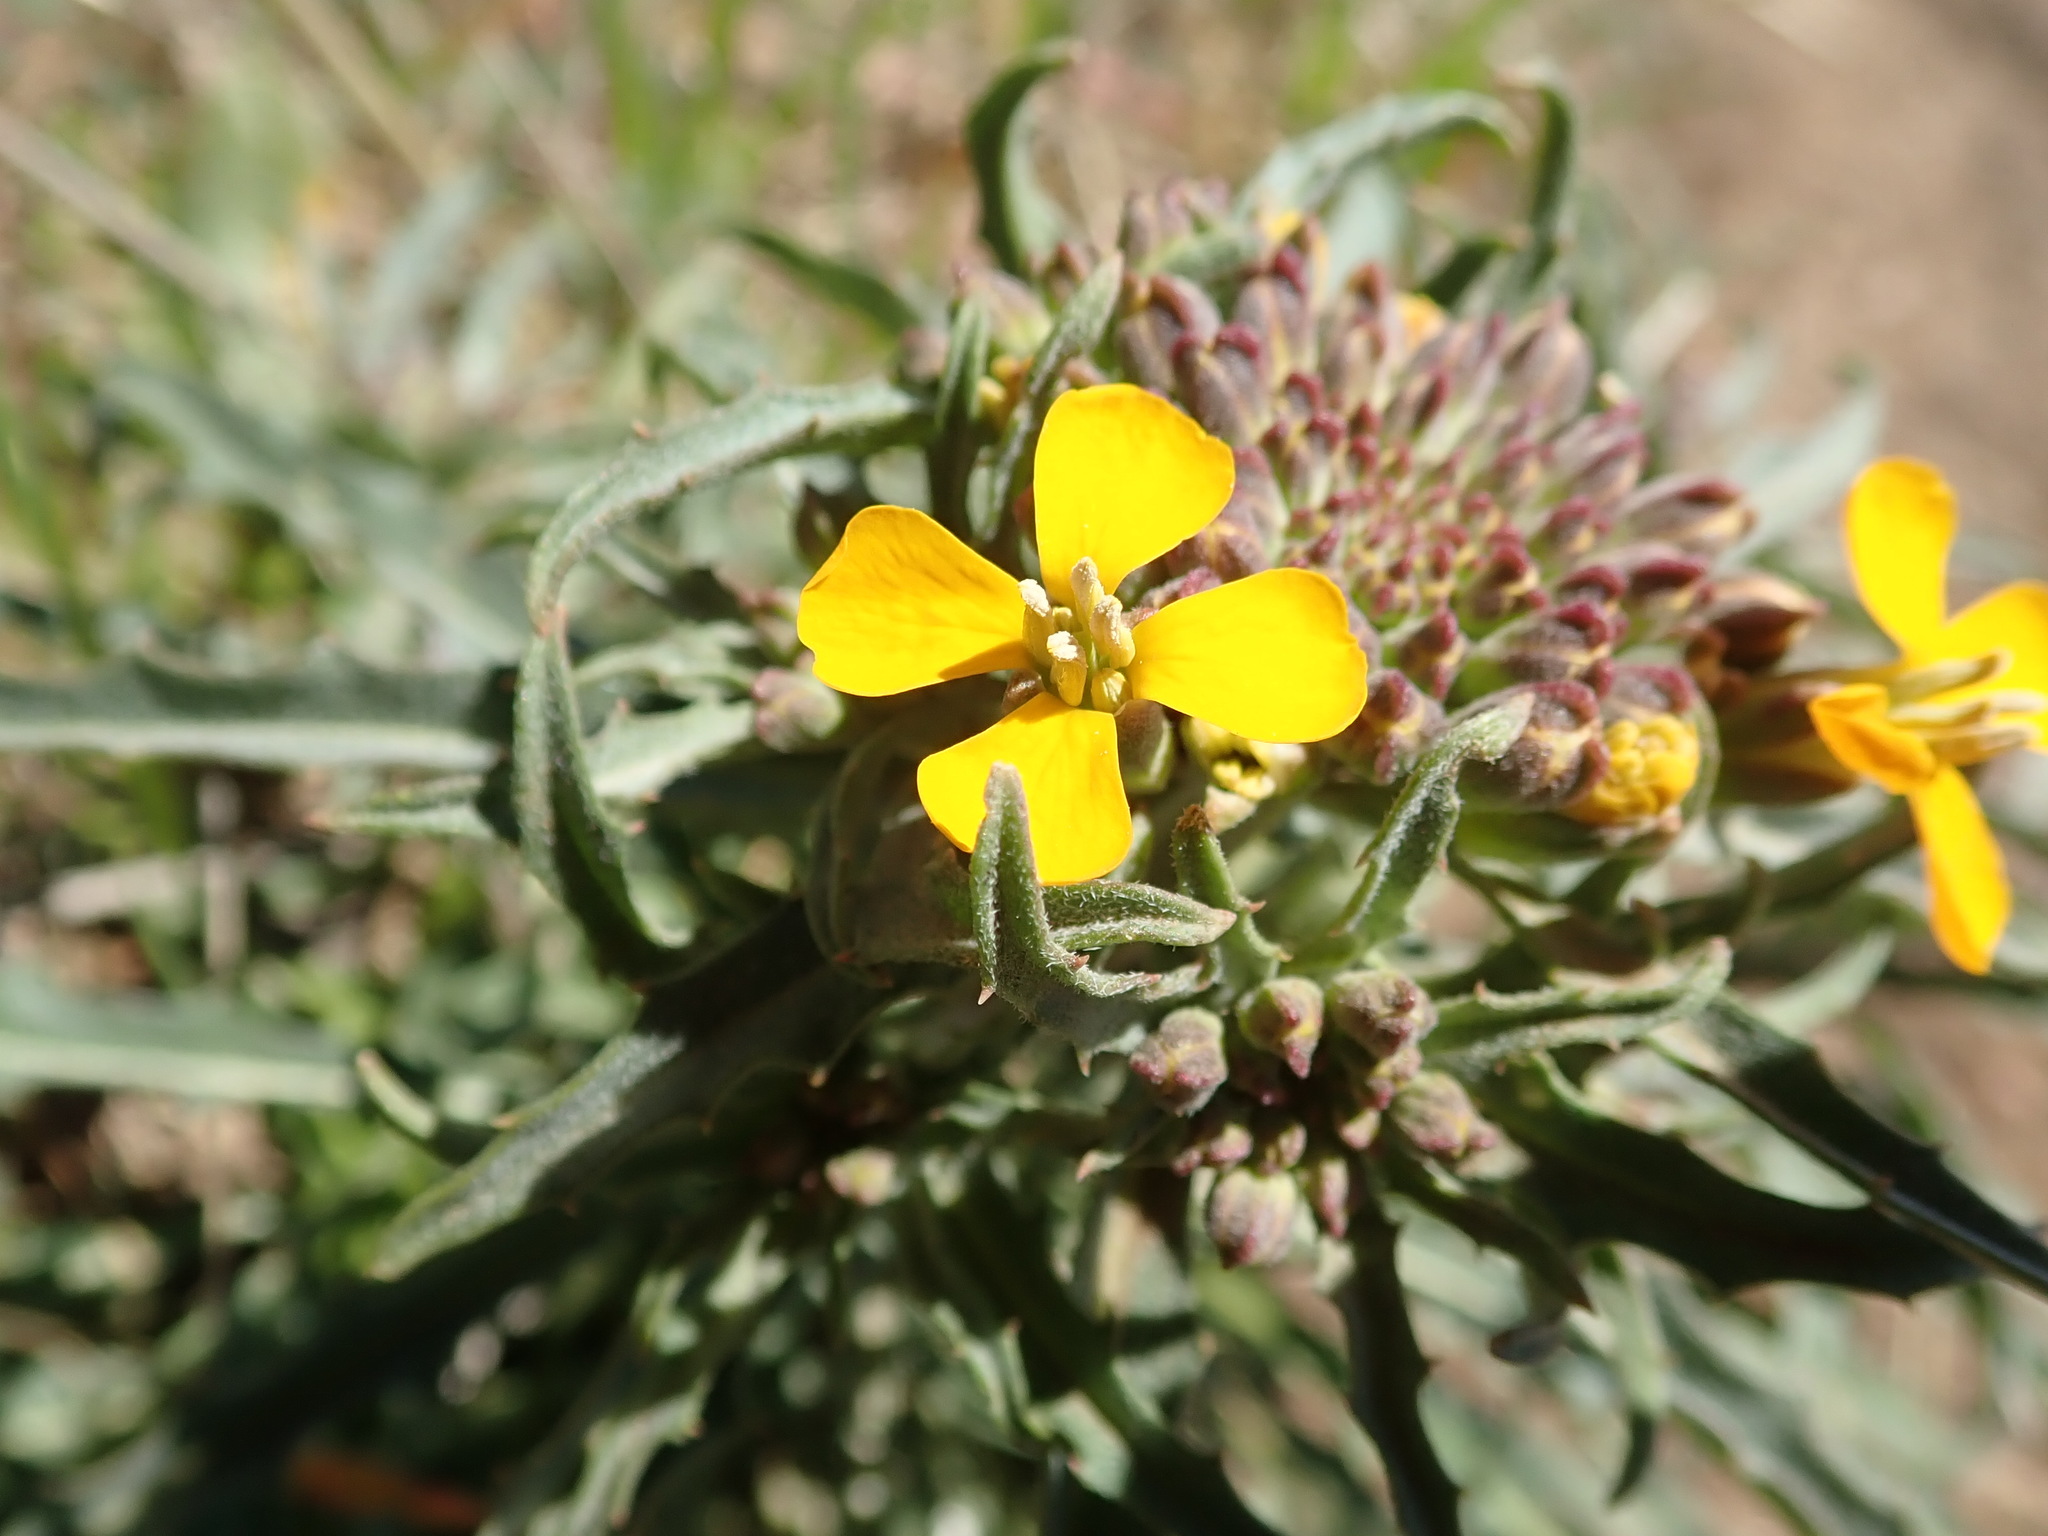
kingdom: Plantae
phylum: Tracheophyta
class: Magnoliopsida
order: Brassicales
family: Brassicaceae
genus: Erysimum
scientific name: Erysimum capitatum
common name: Western wallflower
